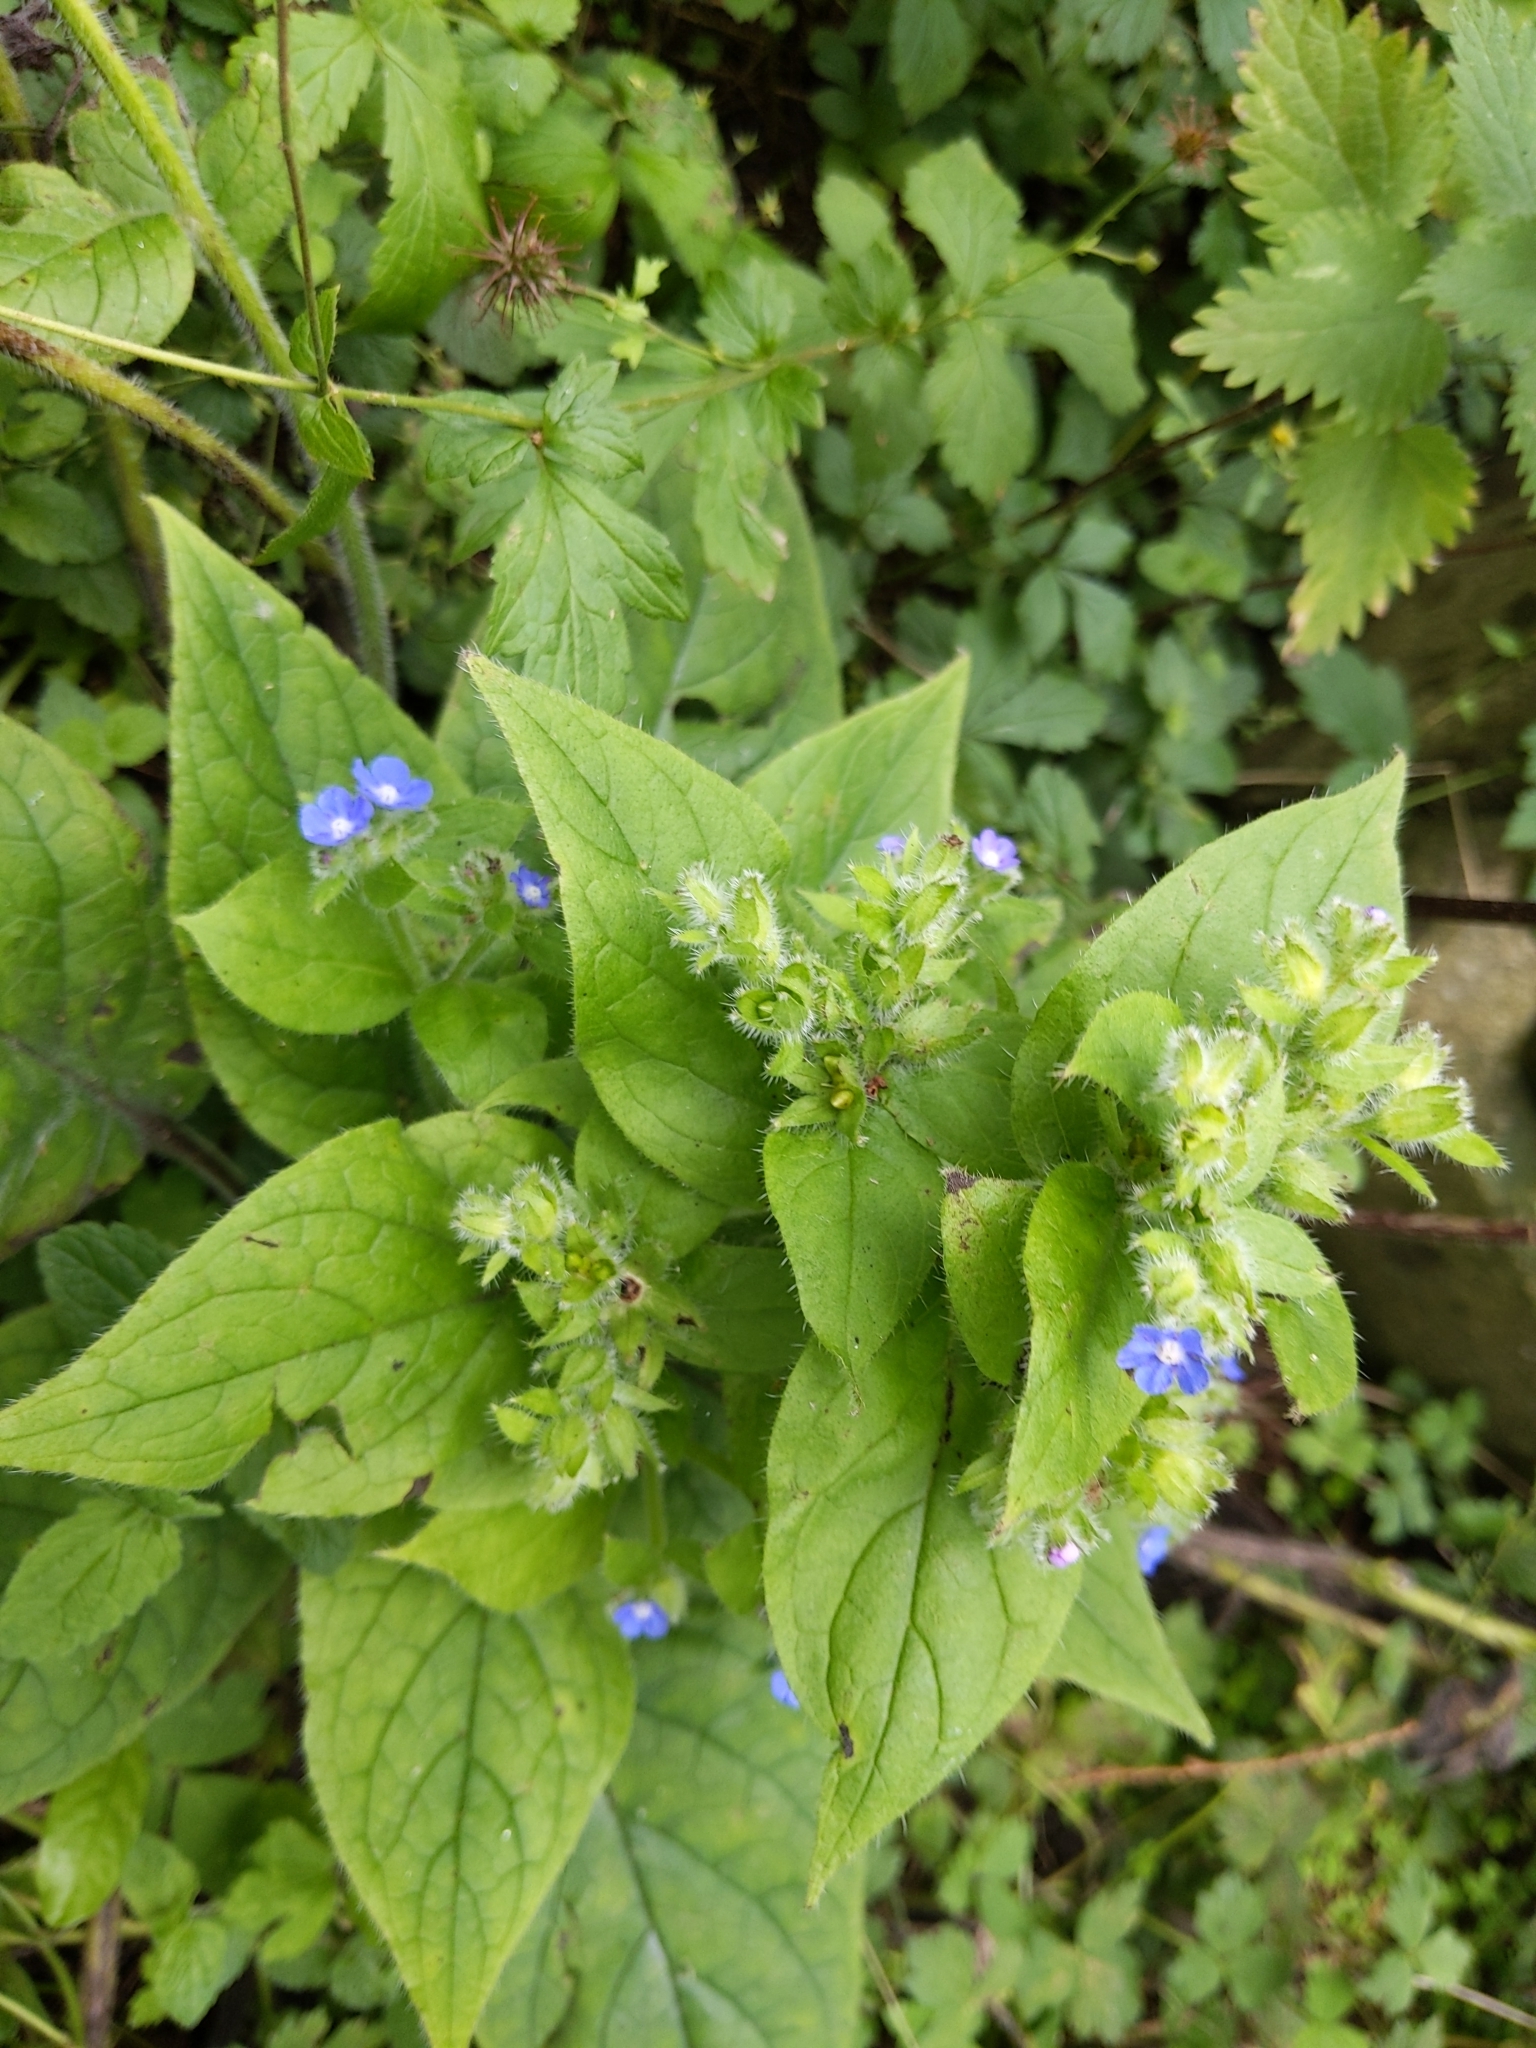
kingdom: Plantae
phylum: Tracheophyta
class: Magnoliopsida
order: Boraginales
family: Boraginaceae
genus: Pentaglottis
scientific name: Pentaglottis sempervirens
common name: Green alkanet
